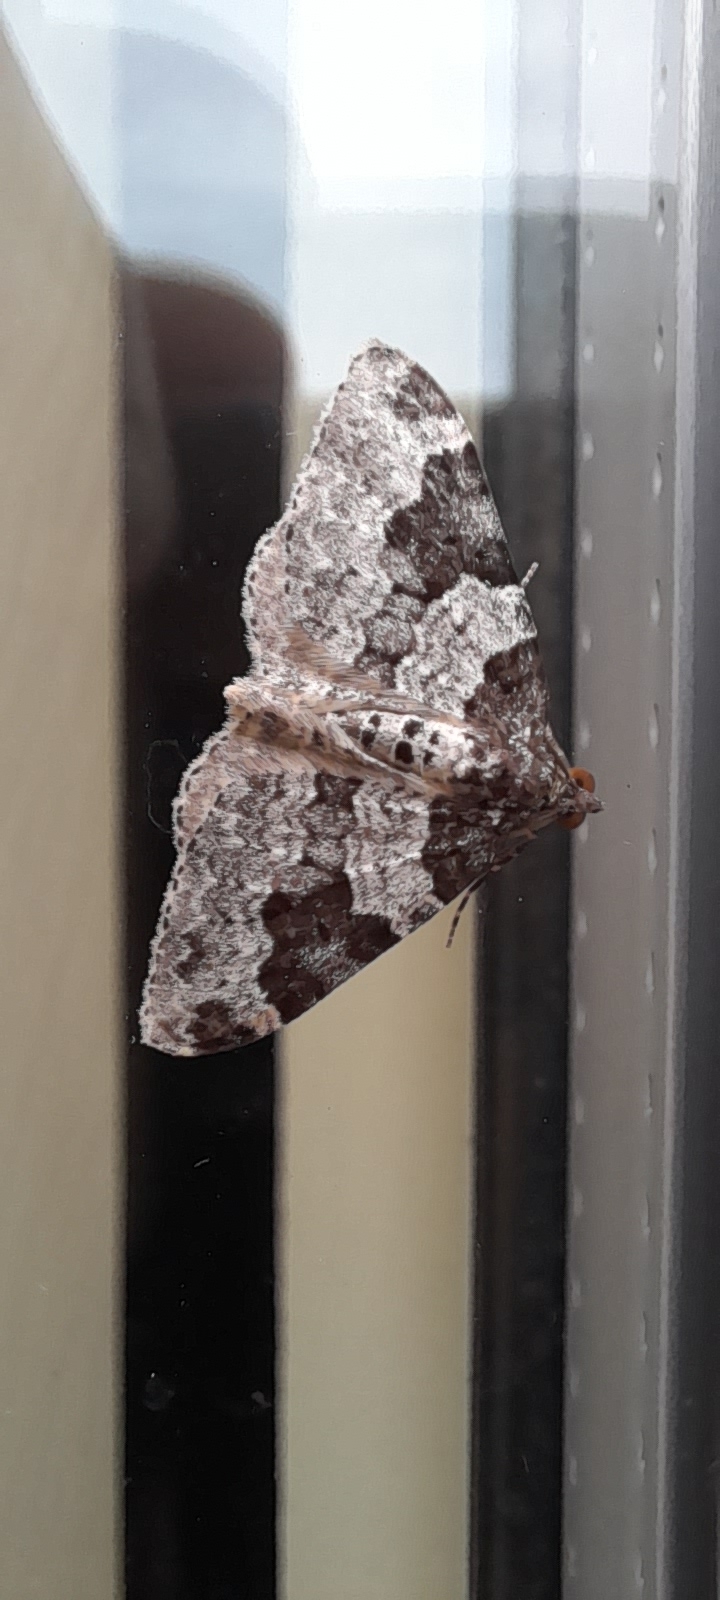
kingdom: Animalia
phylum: Arthropoda
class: Insecta
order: Lepidoptera
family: Geometridae
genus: Xanthorhoe
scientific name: Xanthorhoe fluctuata
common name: Garden carpet
